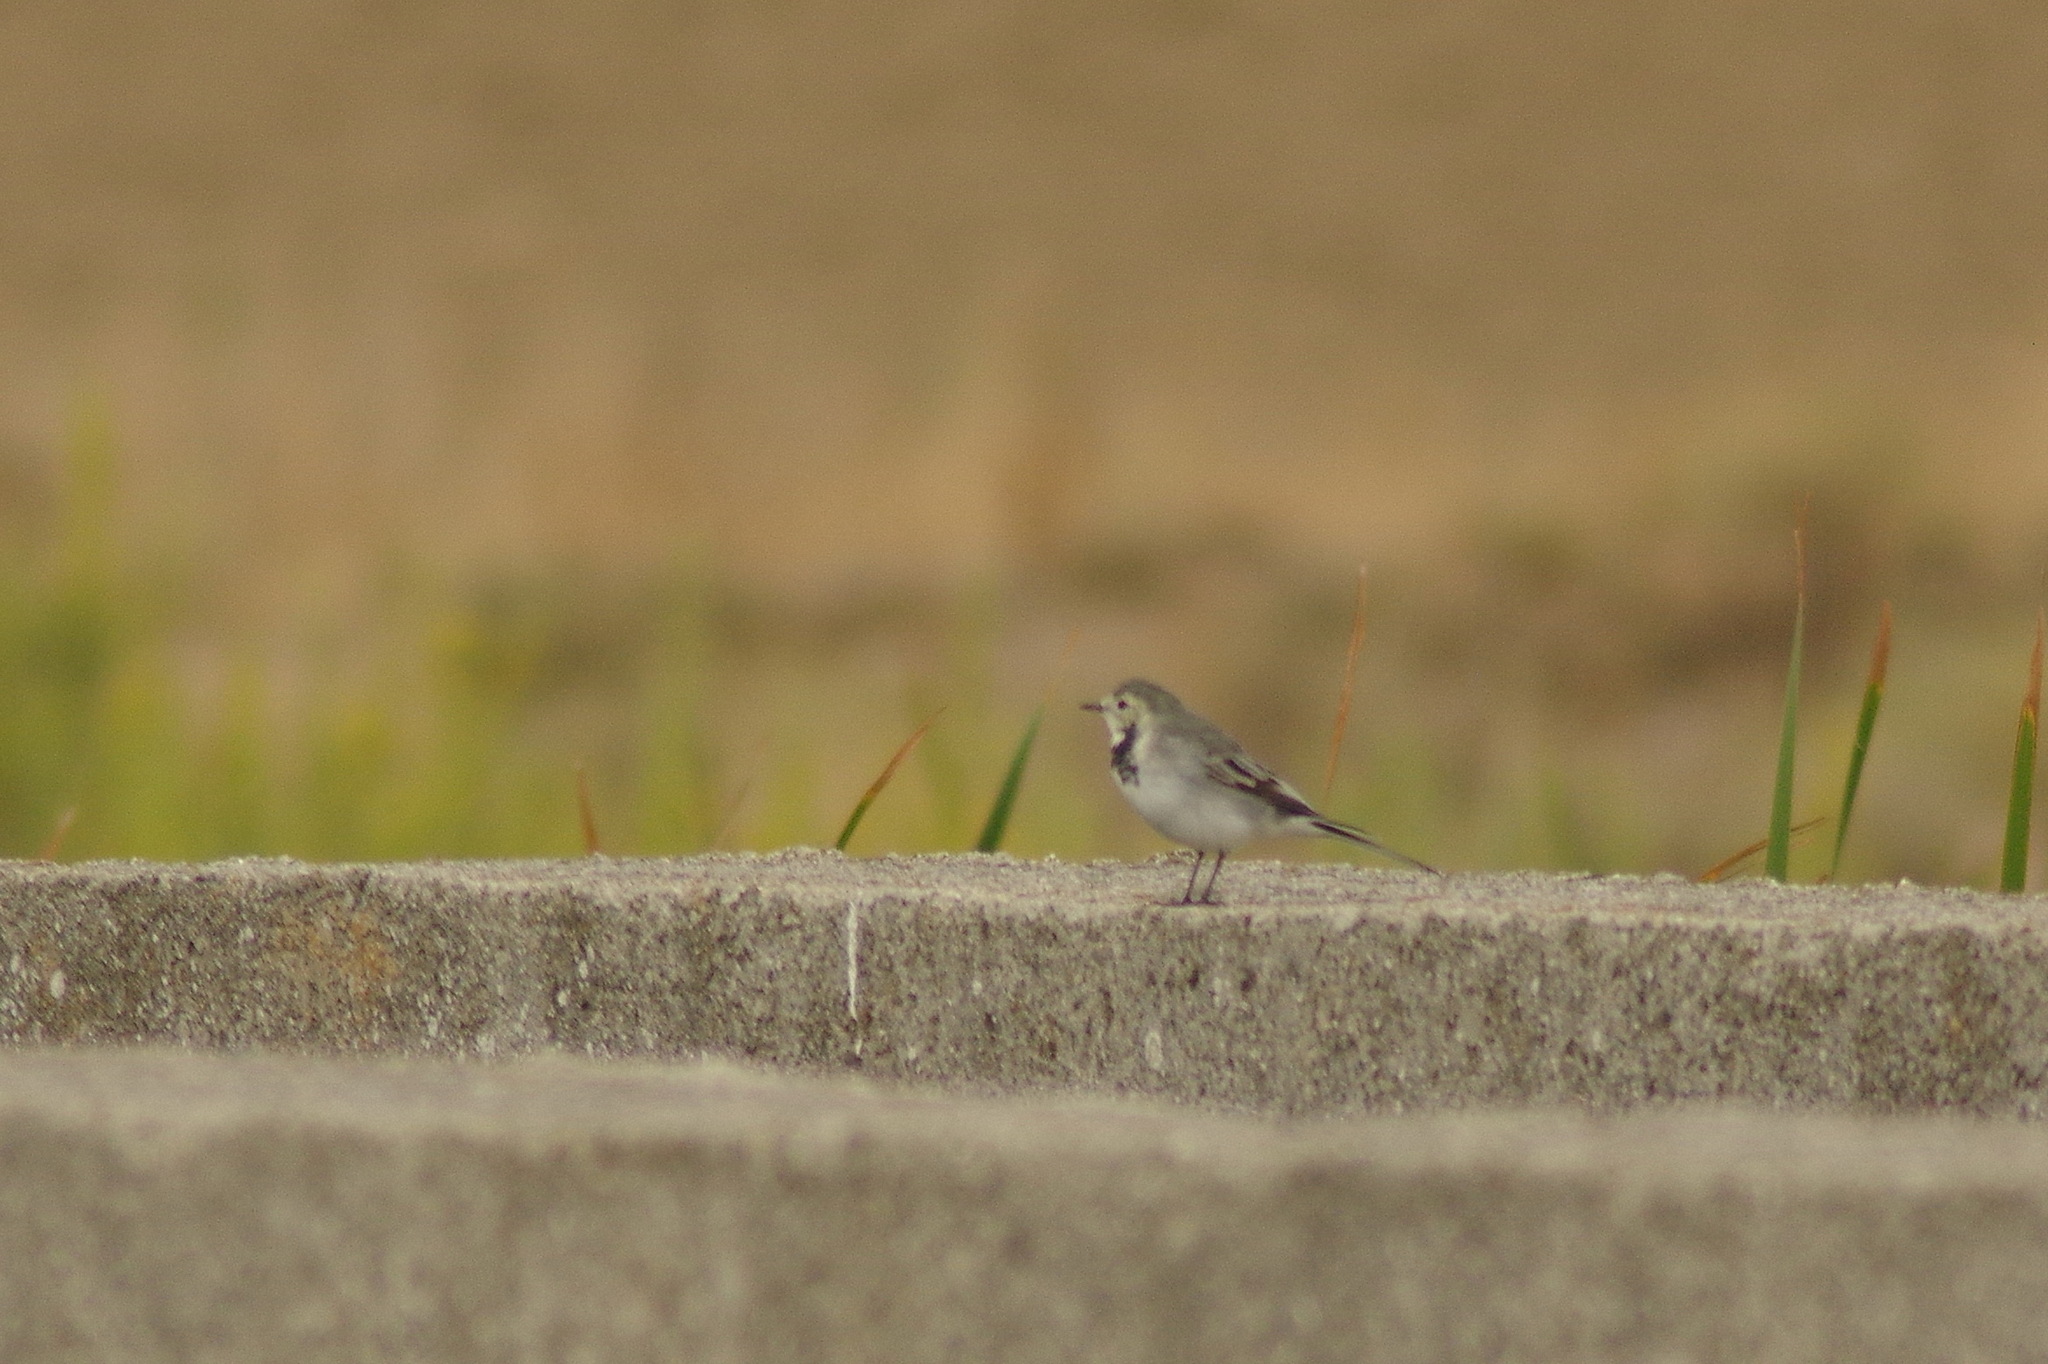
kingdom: Animalia
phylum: Chordata
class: Aves
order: Passeriformes
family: Motacillidae
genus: Motacilla
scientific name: Motacilla alba
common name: White wagtail
